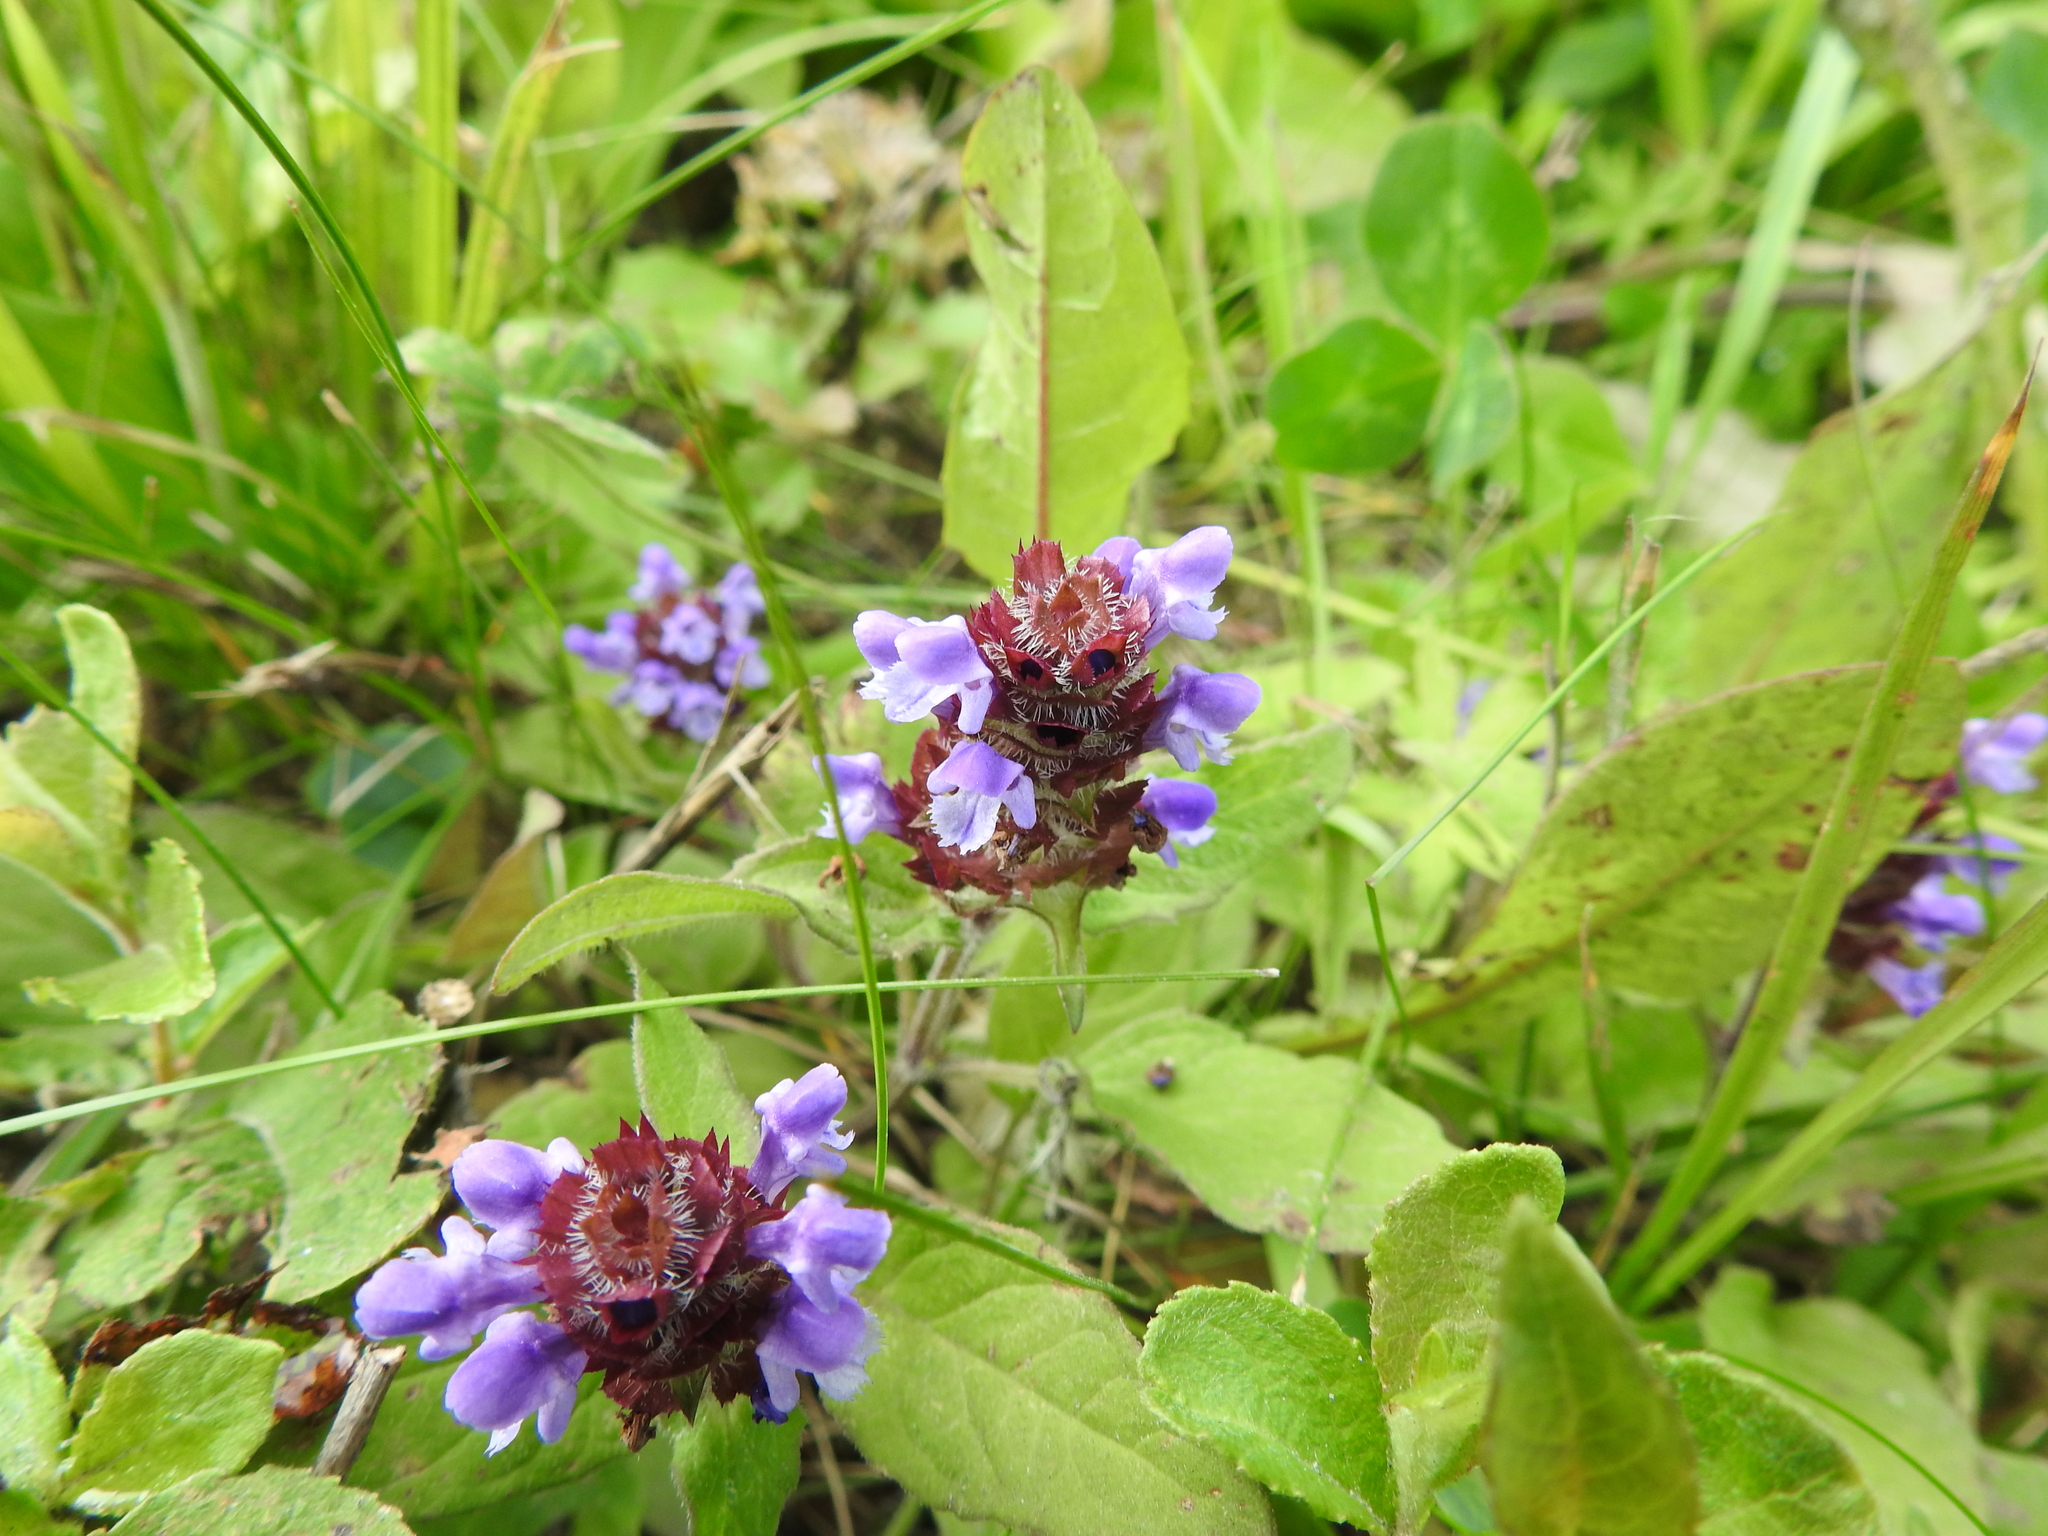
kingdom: Plantae
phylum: Tracheophyta
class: Magnoliopsida
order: Lamiales
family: Lamiaceae
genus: Prunella
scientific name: Prunella vulgaris
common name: Heal-all
